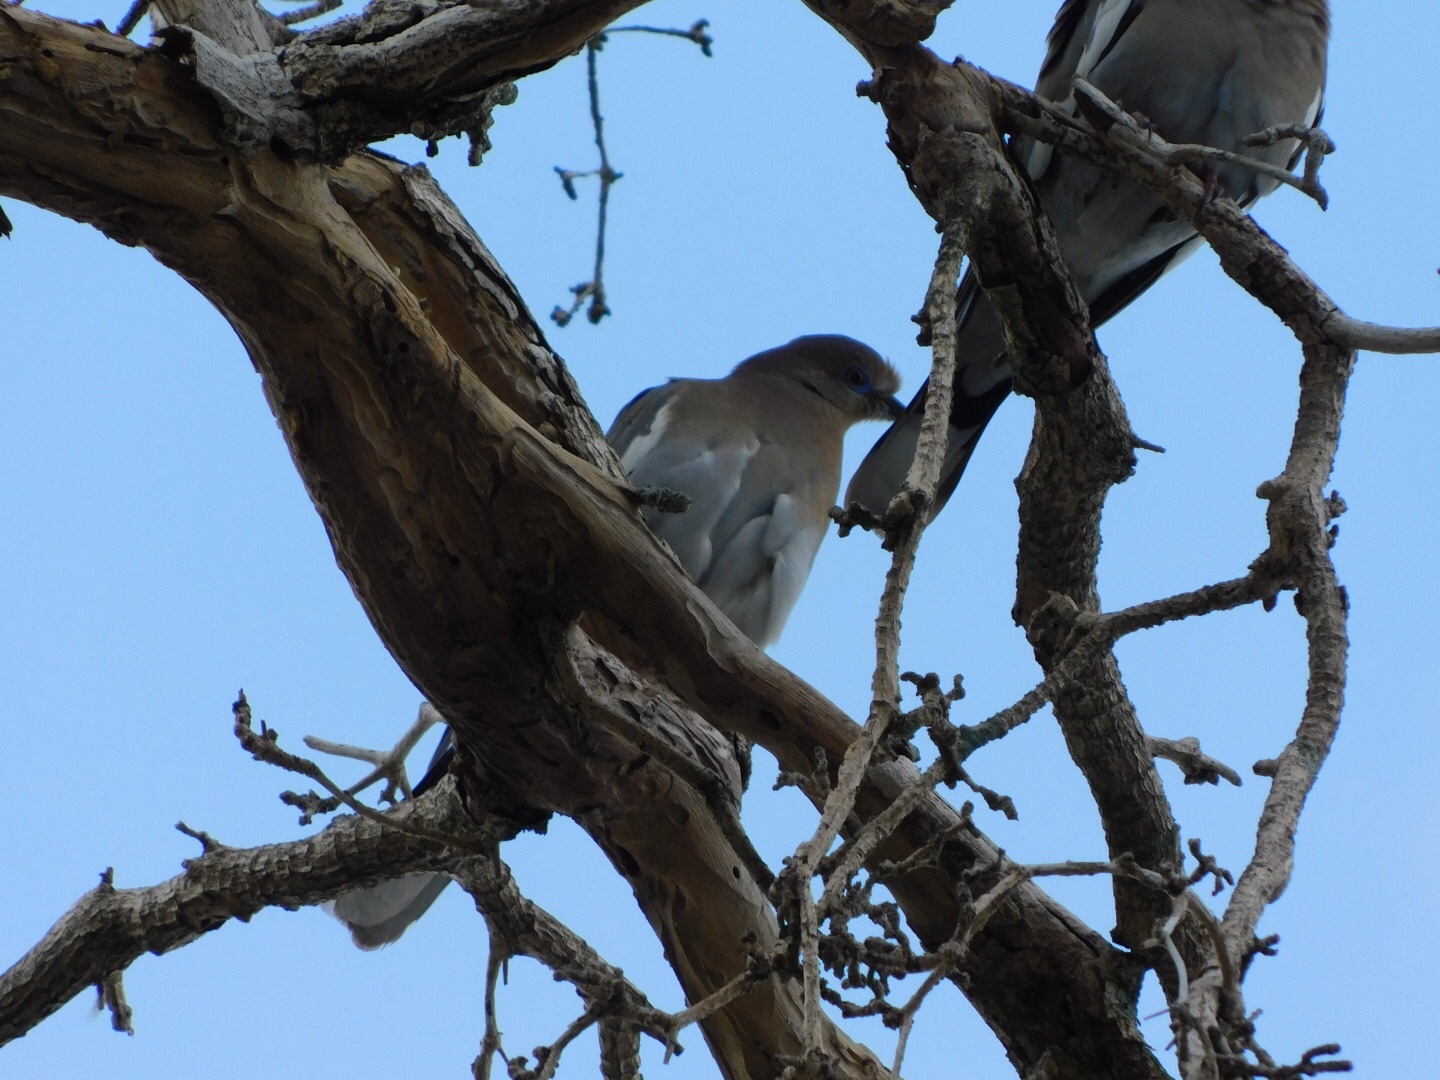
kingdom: Animalia
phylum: Chordata
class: Aves
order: Columbiformes
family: Columbidae
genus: Zenaida
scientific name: Zenaida asiatica
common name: White-winged dove
